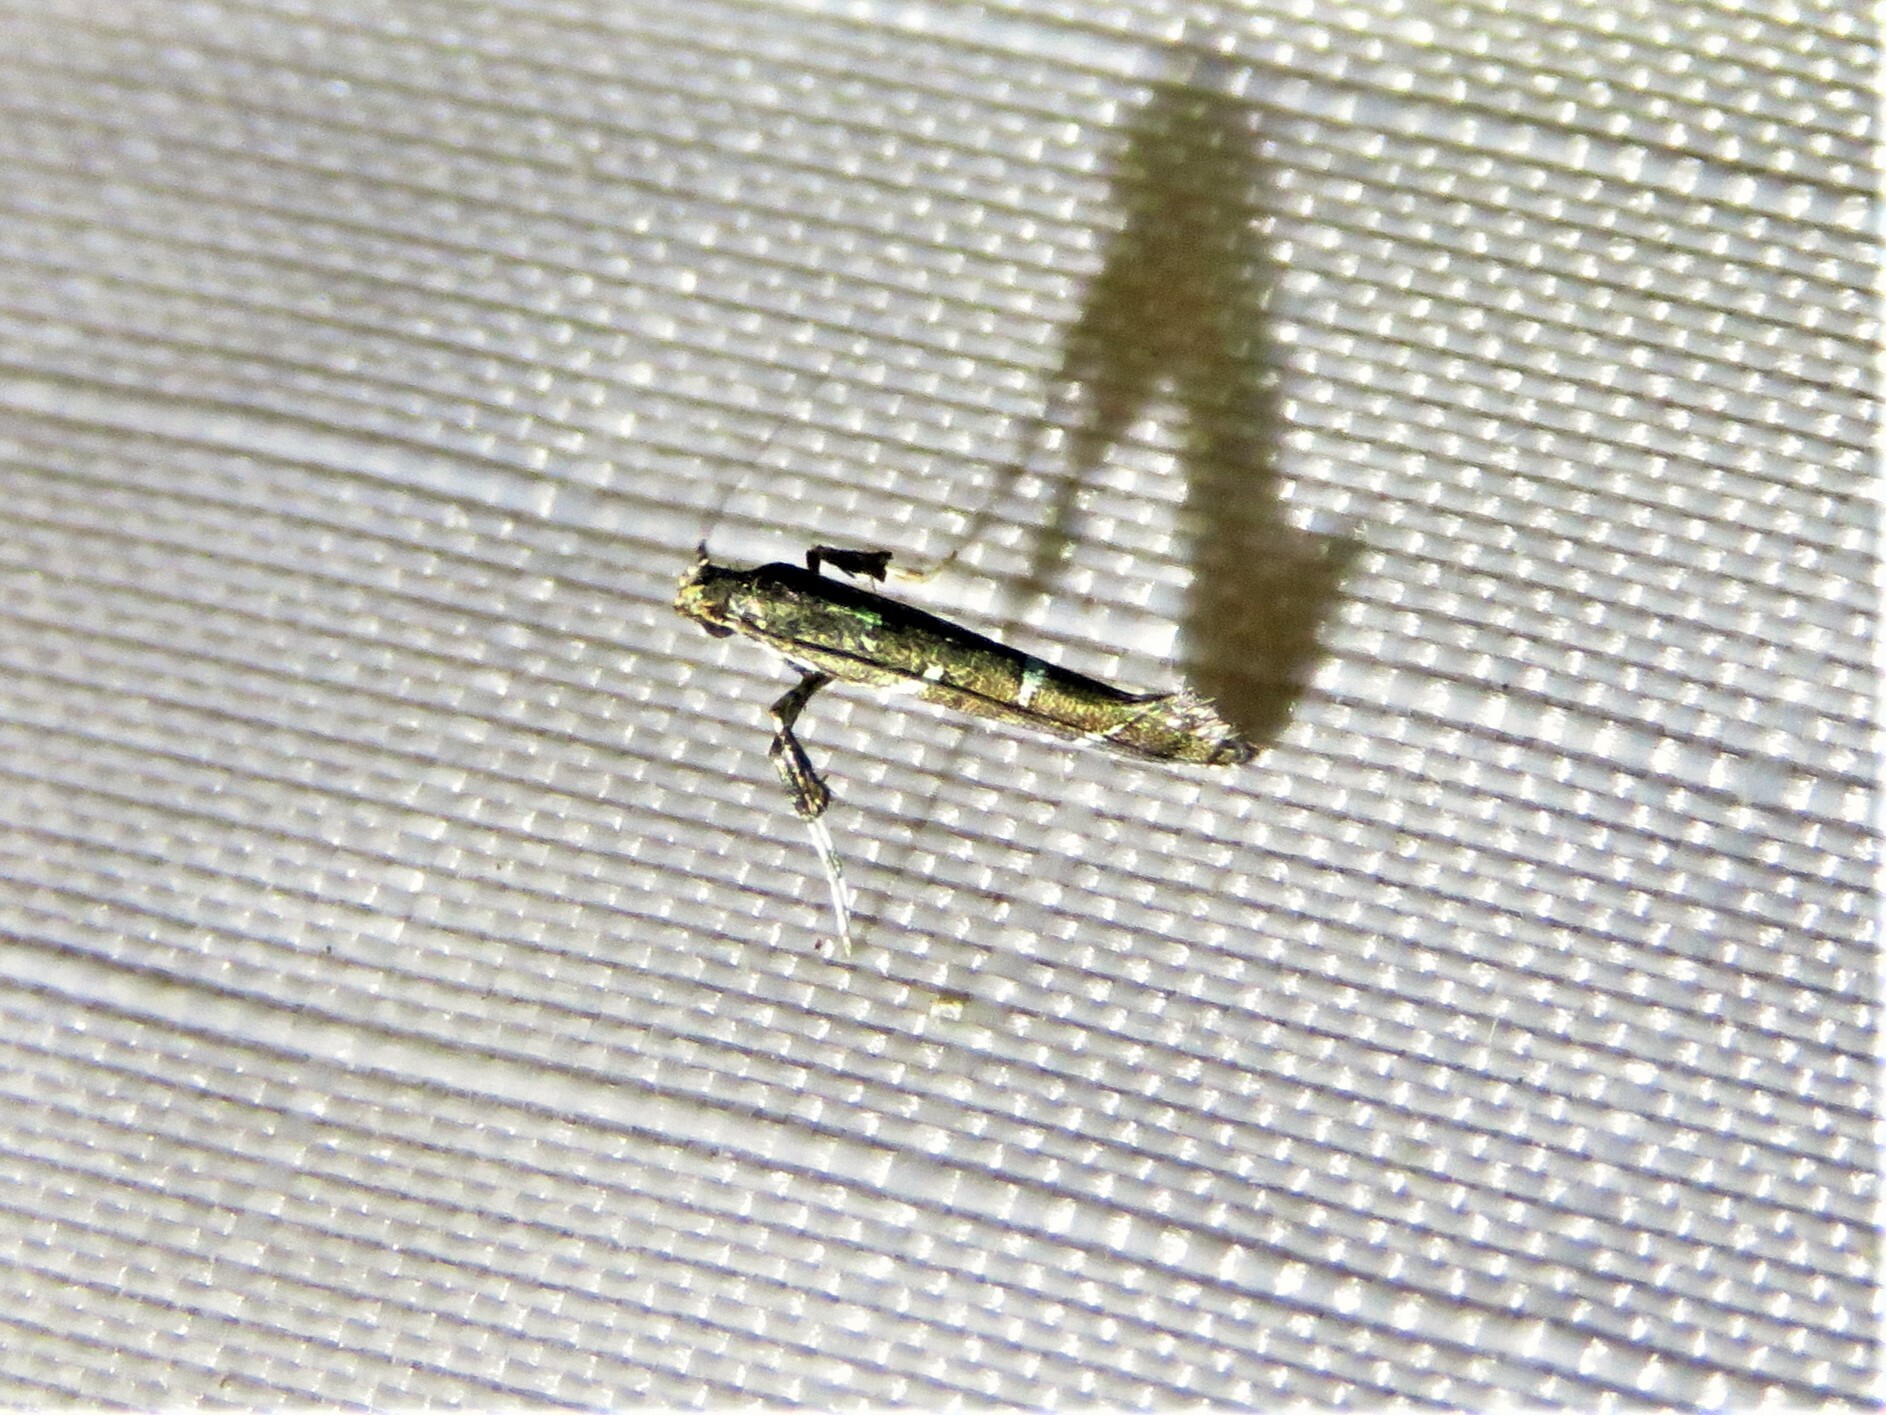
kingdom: Animalia
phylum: Arthropoda
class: Insecta
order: Lepidoptera
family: Gracillariidae
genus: Caloptilia
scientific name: Caloptilia triadicae
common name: Tallow leaf roller
